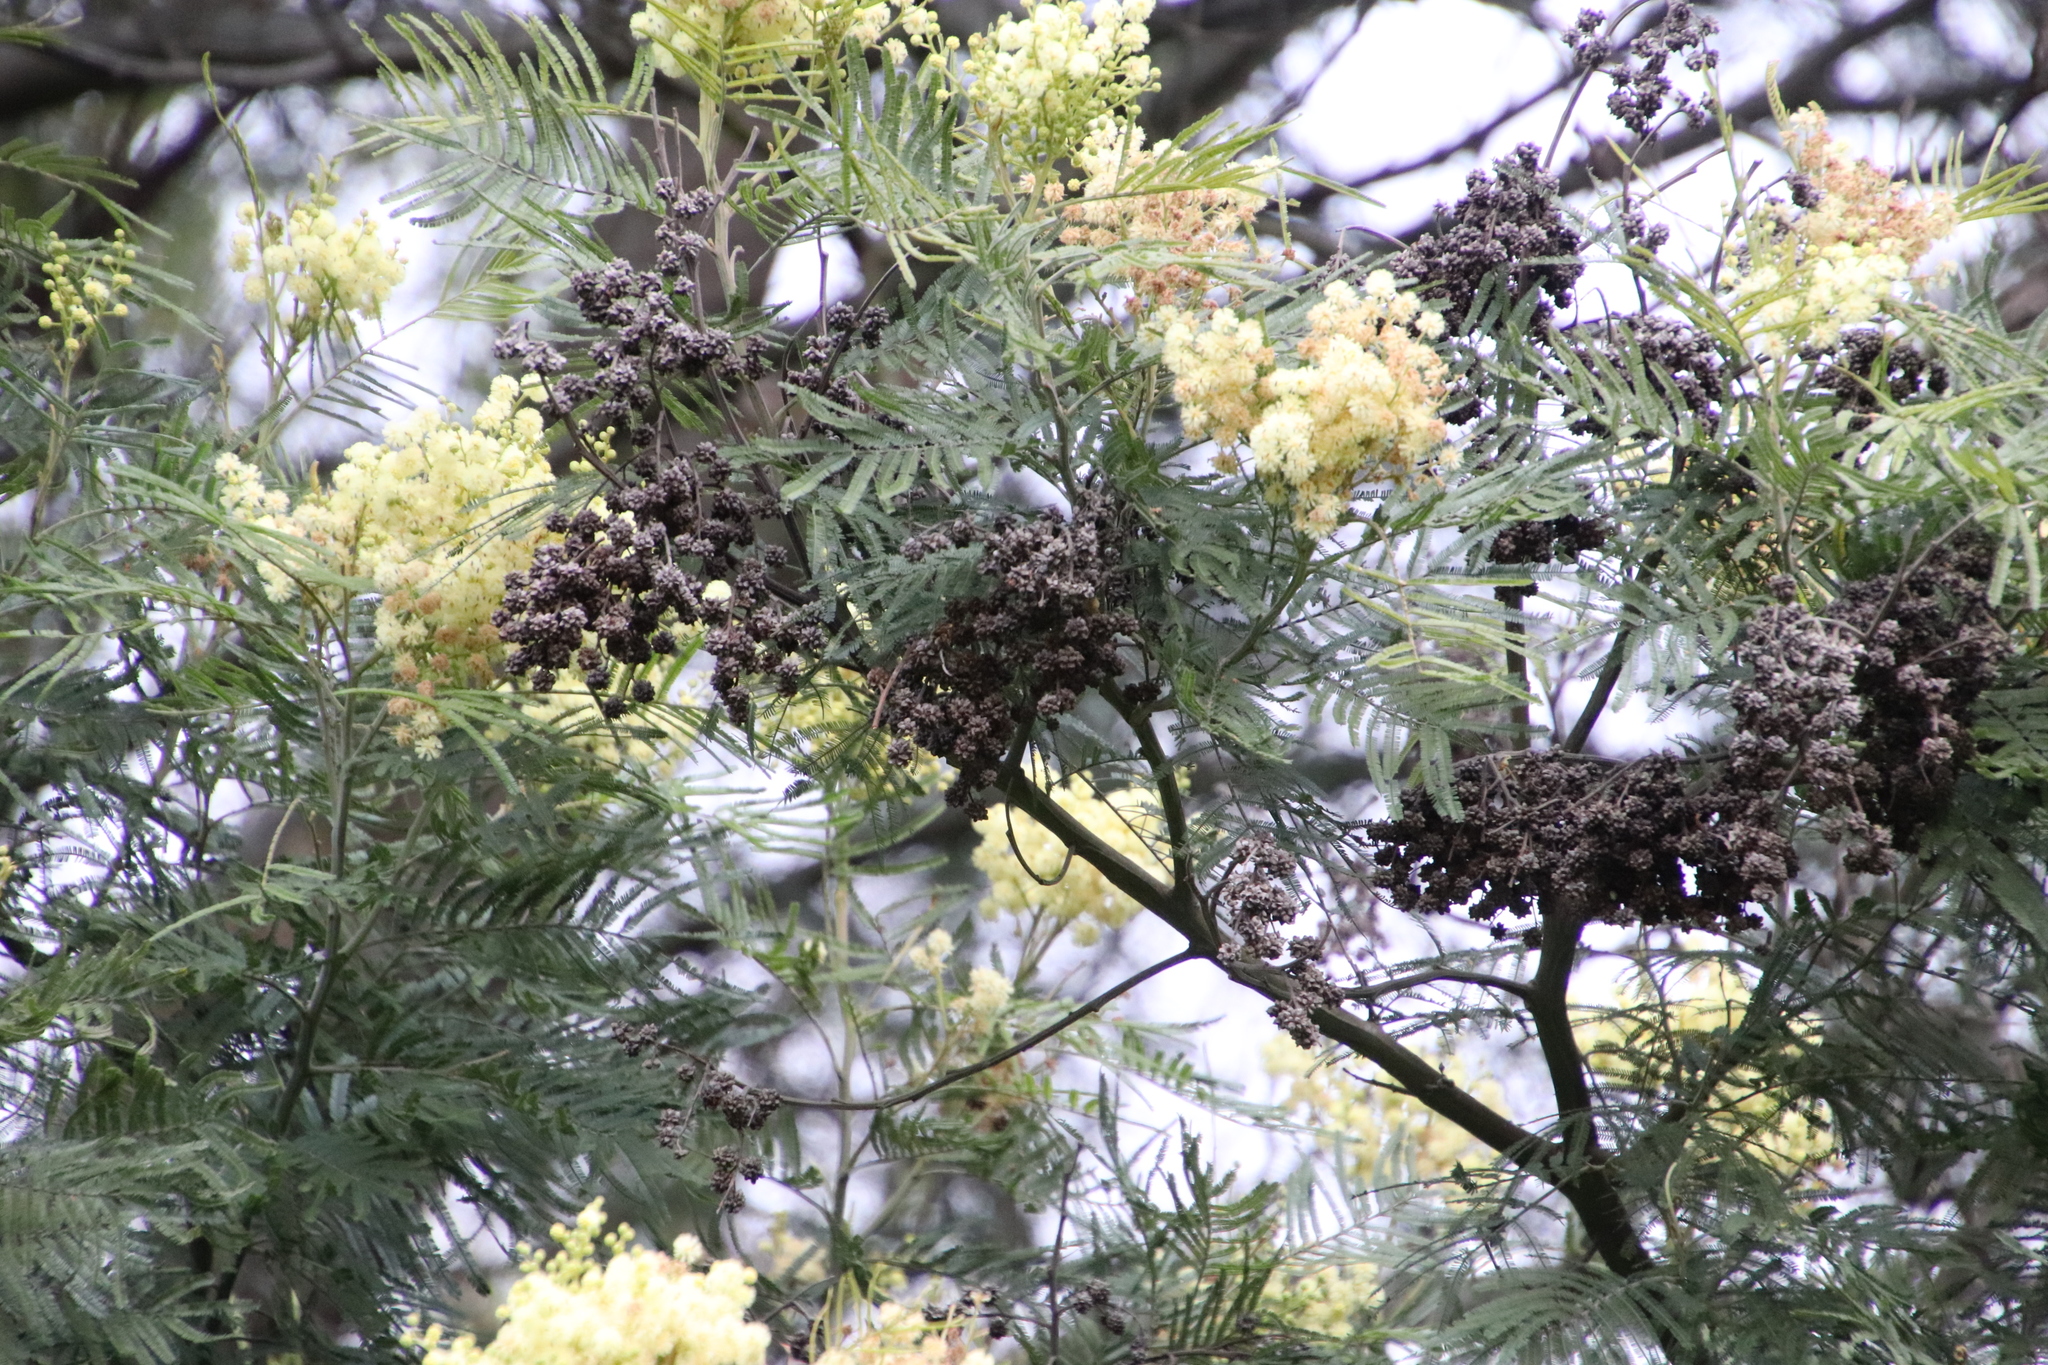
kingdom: Plantae
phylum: Tracheophyta
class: Magnoliopsida
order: Fabales
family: Fabaceae
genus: Acacia
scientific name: Acacia mearnsii
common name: Black wattle
